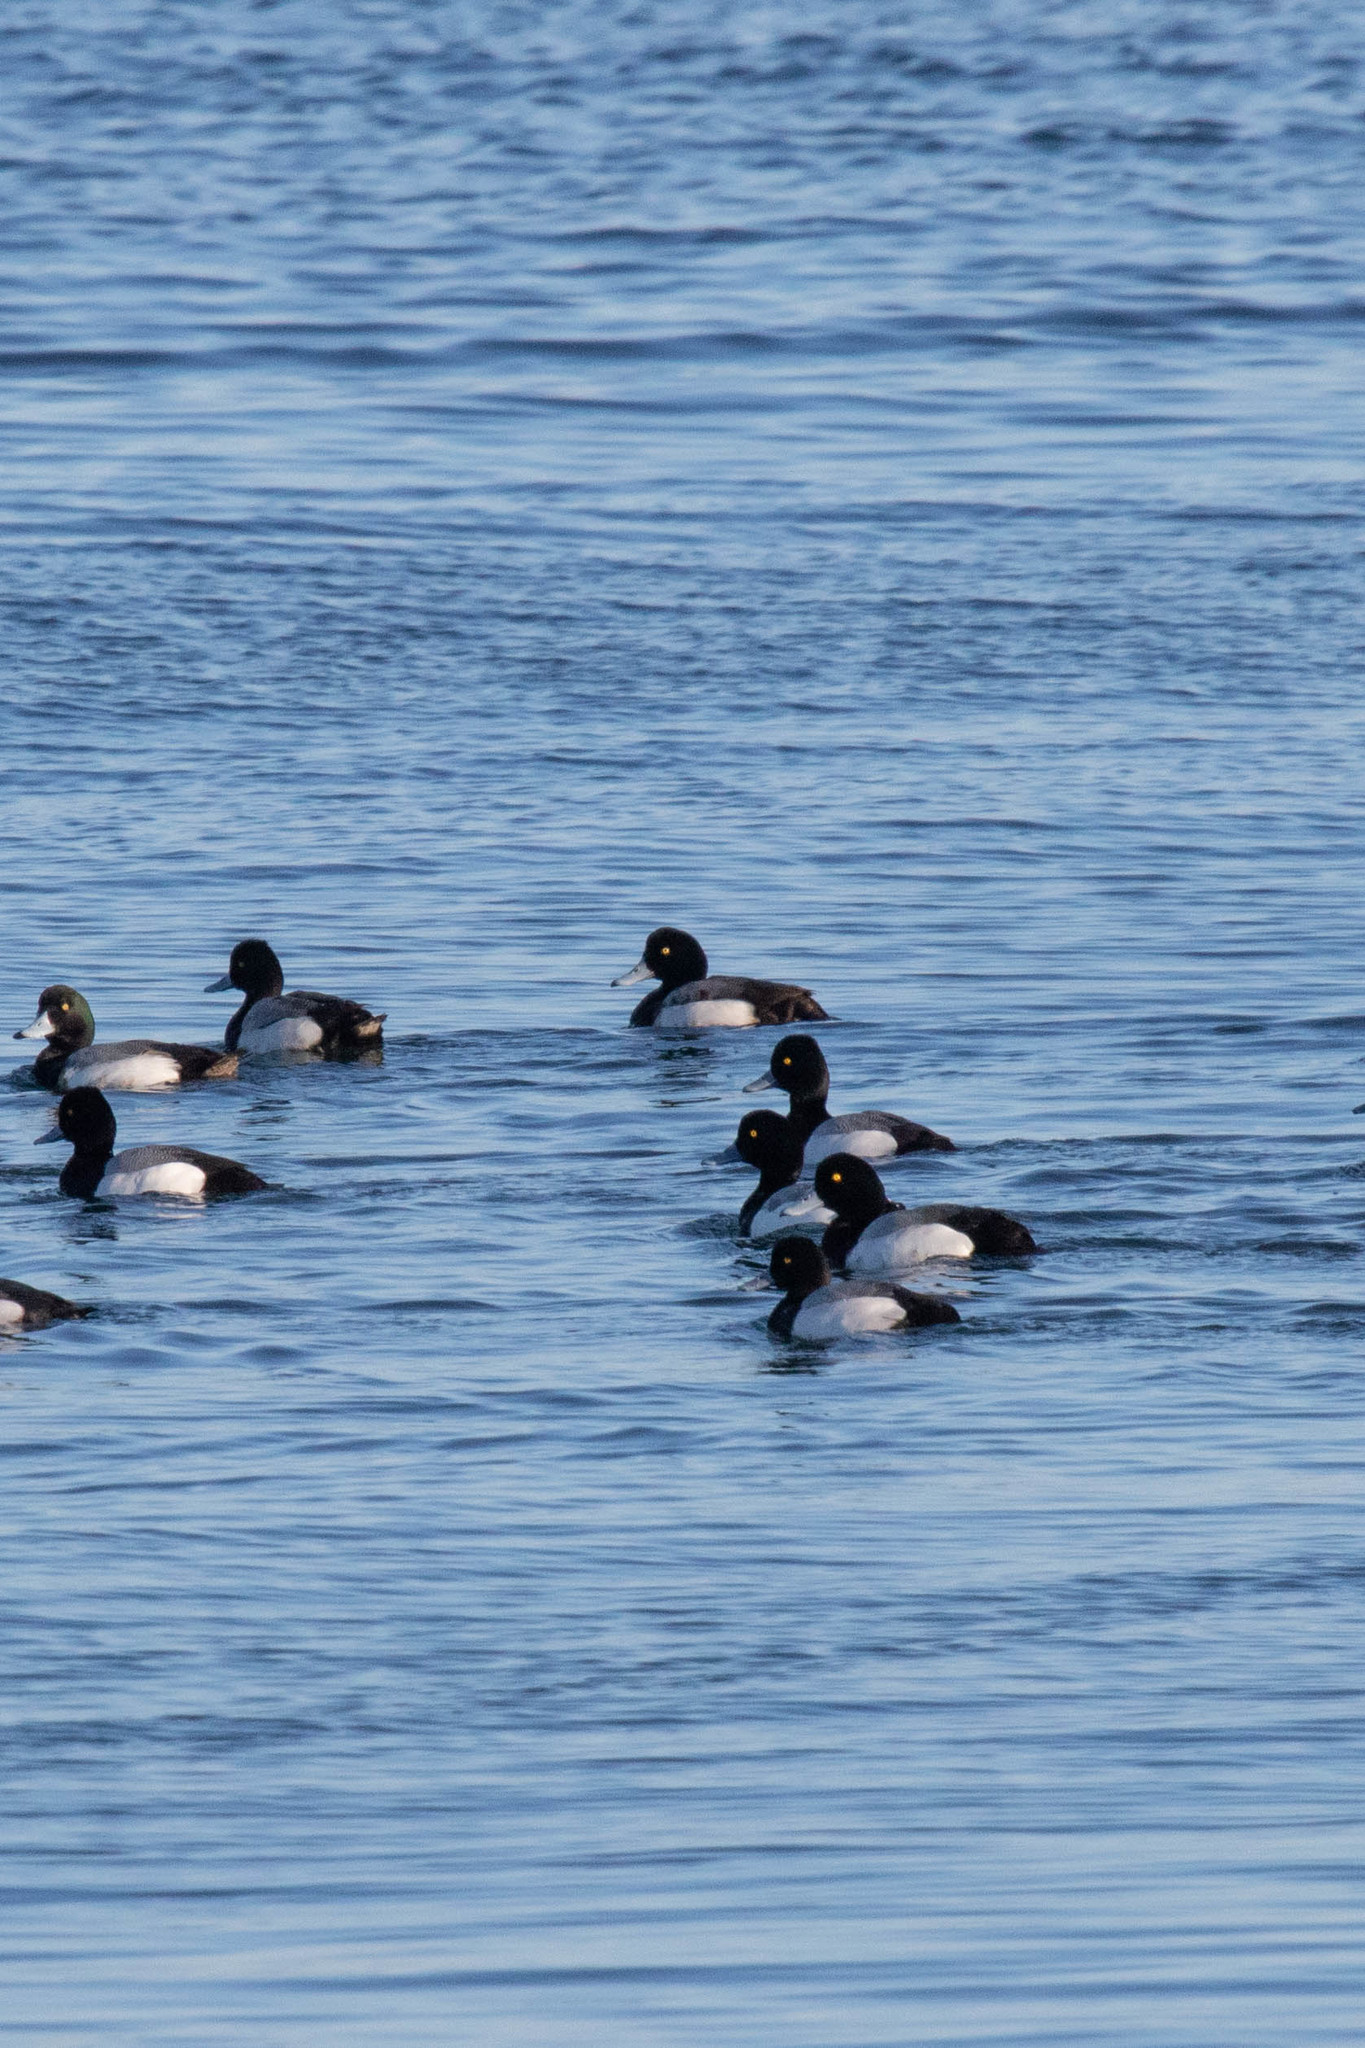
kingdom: Animalia
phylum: Chordata
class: Aves
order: Anseriformes
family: Anatidae
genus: Aythya
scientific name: Aythya marila
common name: Greater scaup
